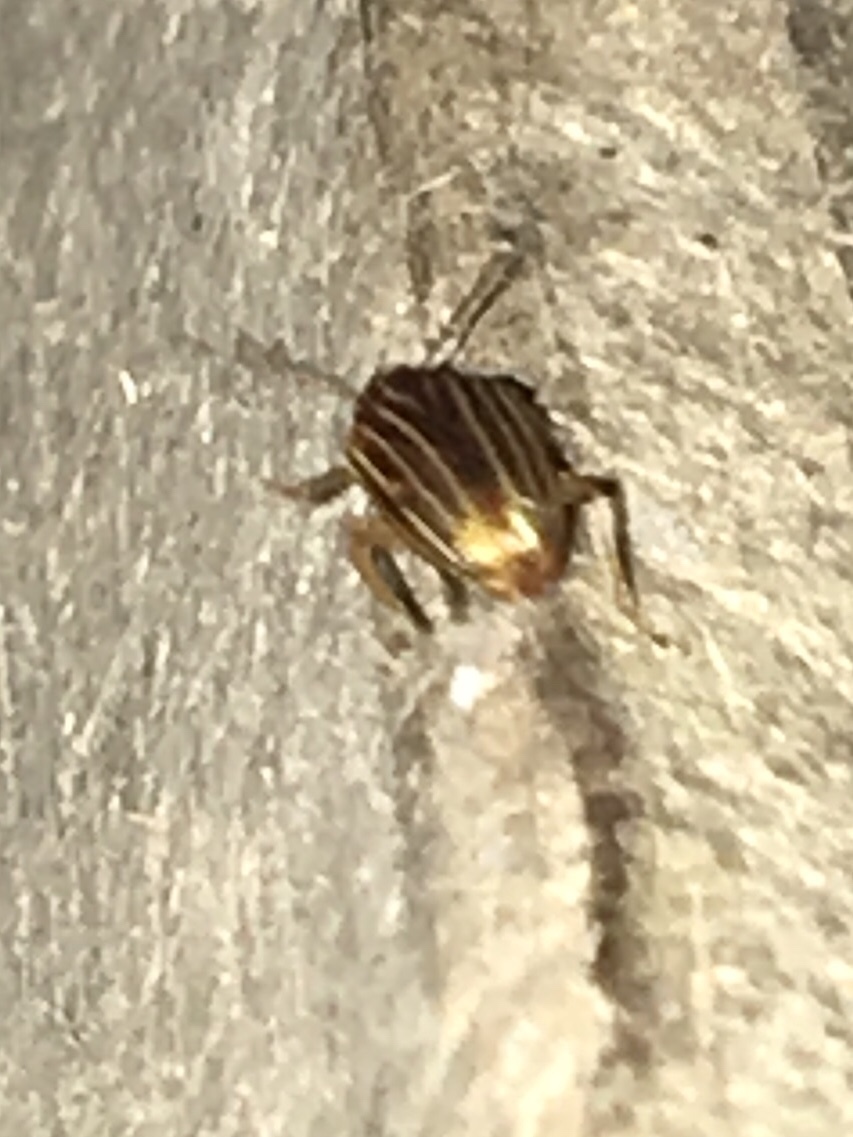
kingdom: Animalia
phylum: Arthropoda
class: Insecta
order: Coleoptera
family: Chrysomelidae
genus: Colaspis
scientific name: Colaspis pini
